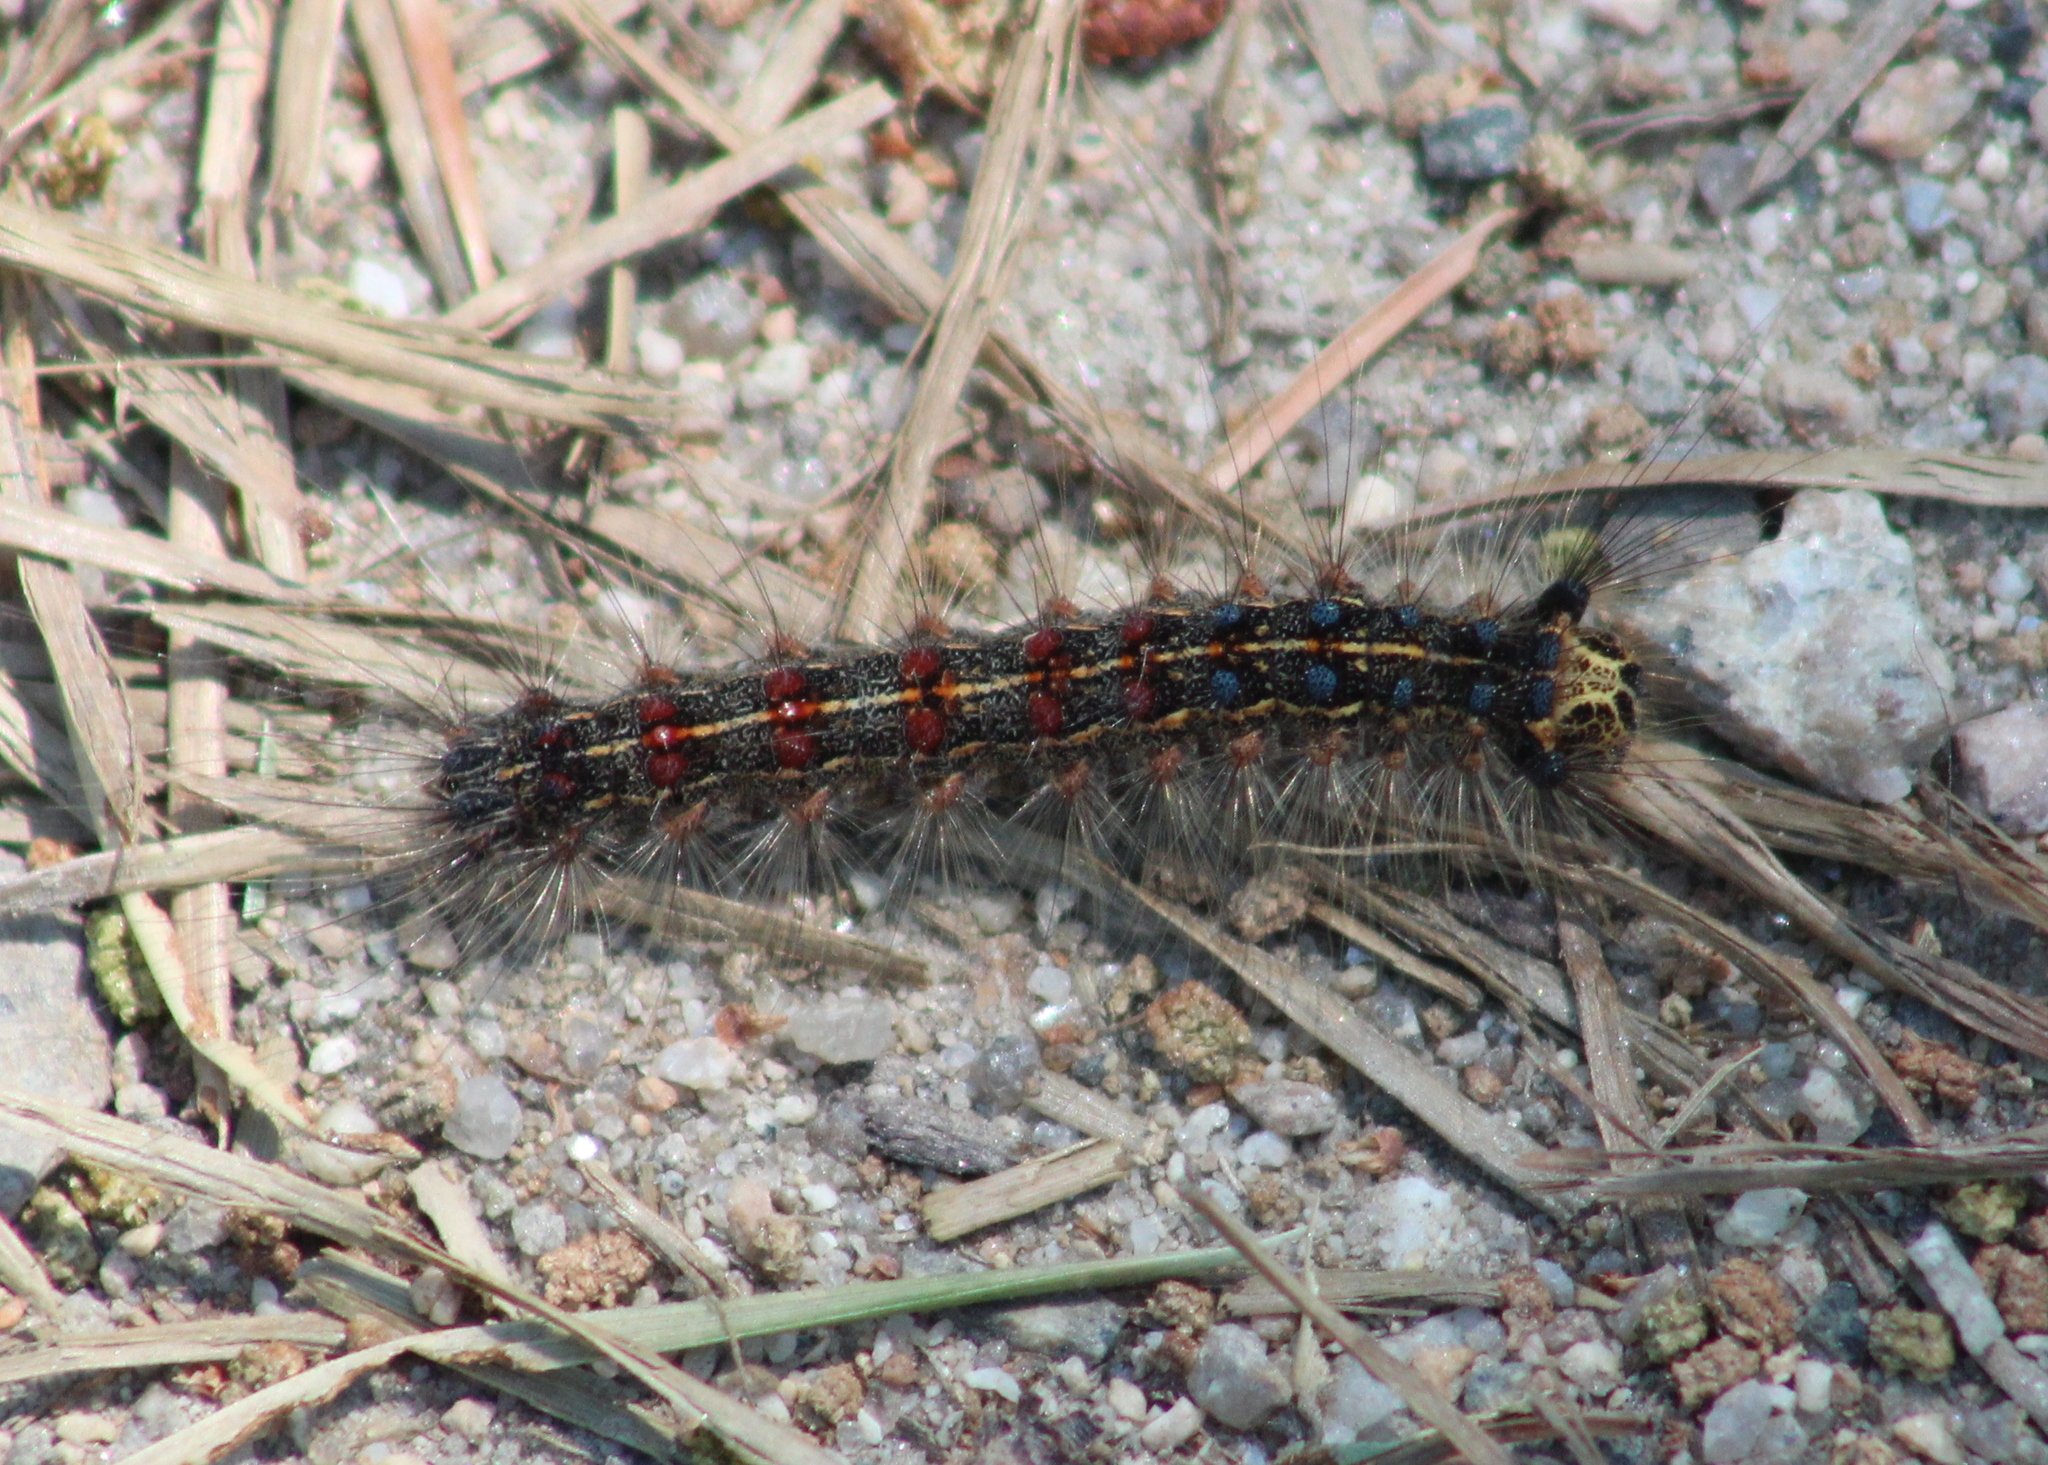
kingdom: Animalia
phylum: Arthropoda
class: Insecta
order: Lepidoptera
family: Erebidae
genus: Lymantria
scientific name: Lymantria dispar
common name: Gypsy moth
